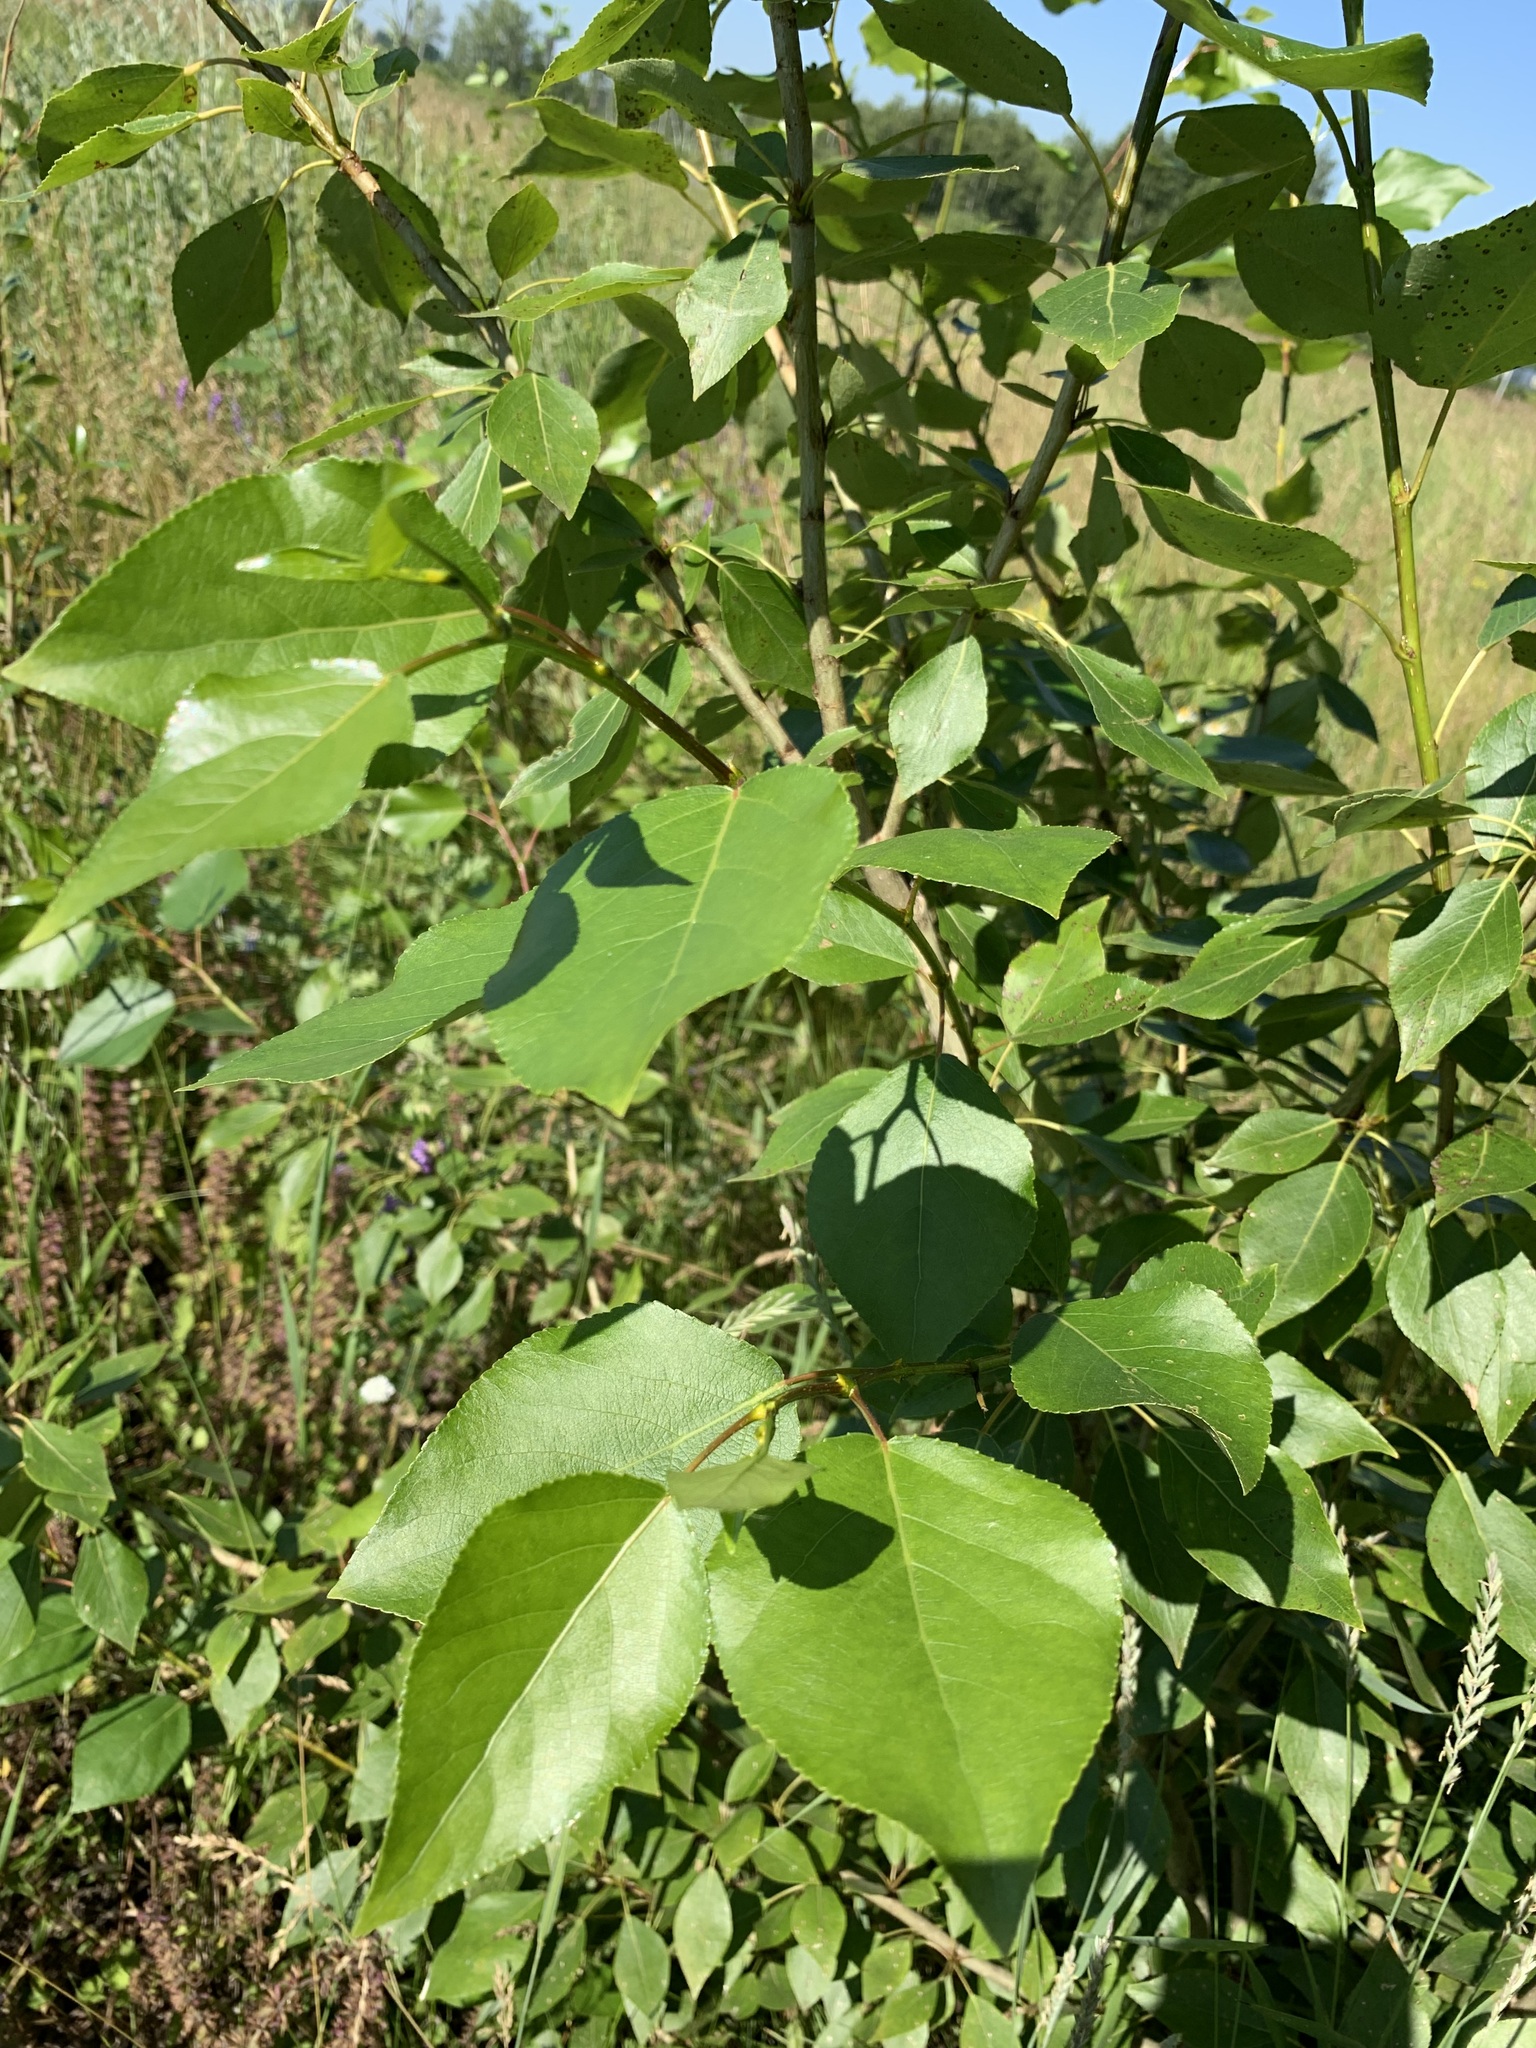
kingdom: Plantae
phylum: Tracheophyta
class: Magnoliopsida
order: Malpighiales
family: Salicaceae
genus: Populus
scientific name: Populus sibirica
